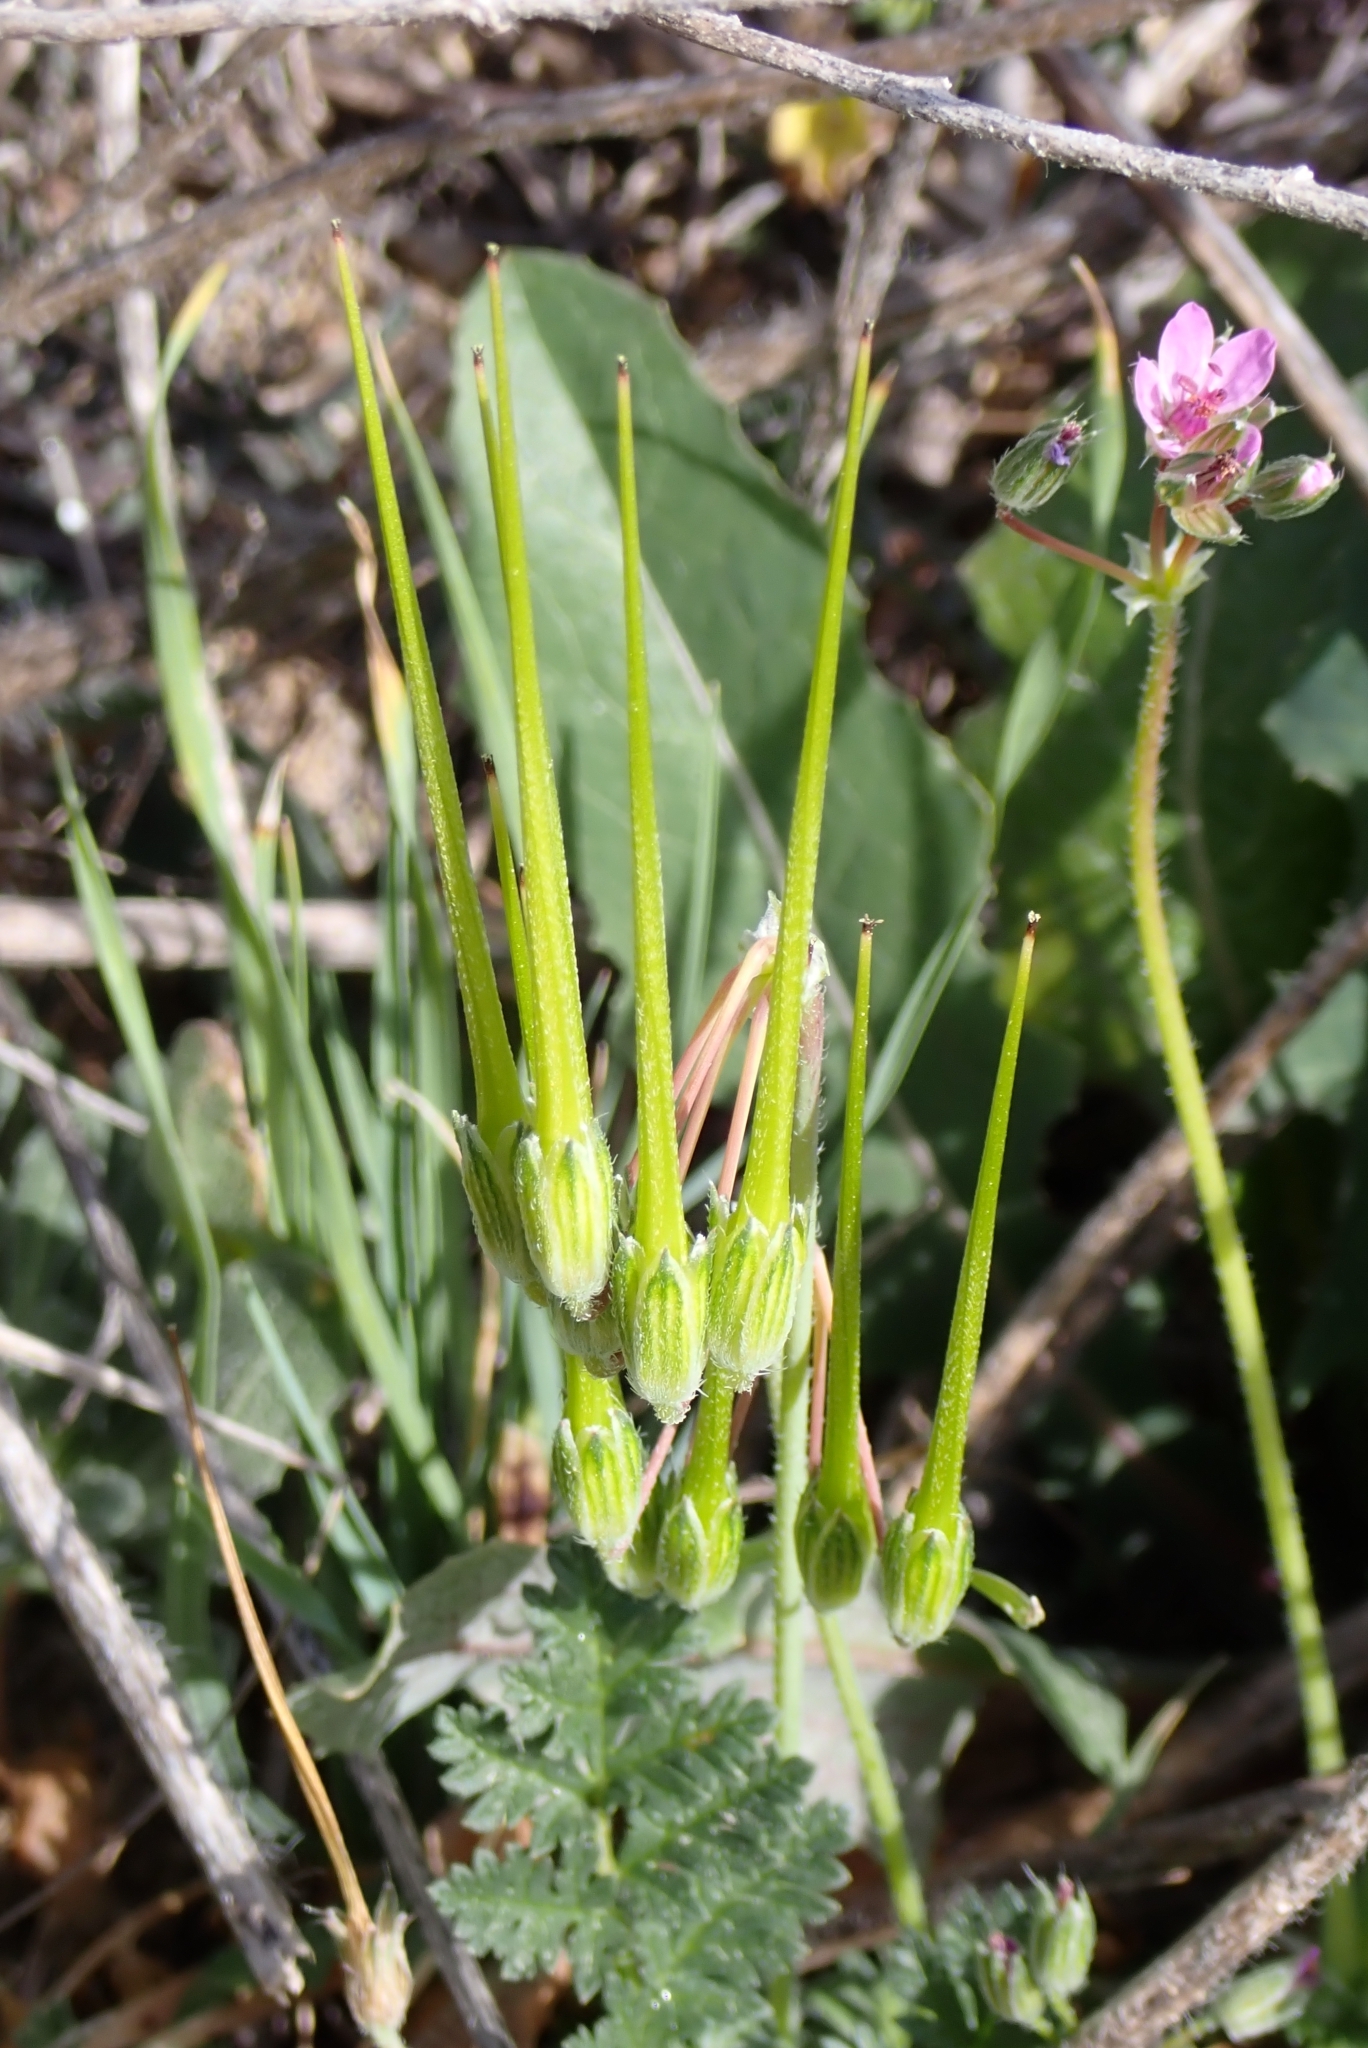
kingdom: Plantae
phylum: Tracheophyta
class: Magnoliopsida
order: Geraniales
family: Geraniaceae
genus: Erodium
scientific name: Erodium cicutarium
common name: Common stork's-bill
